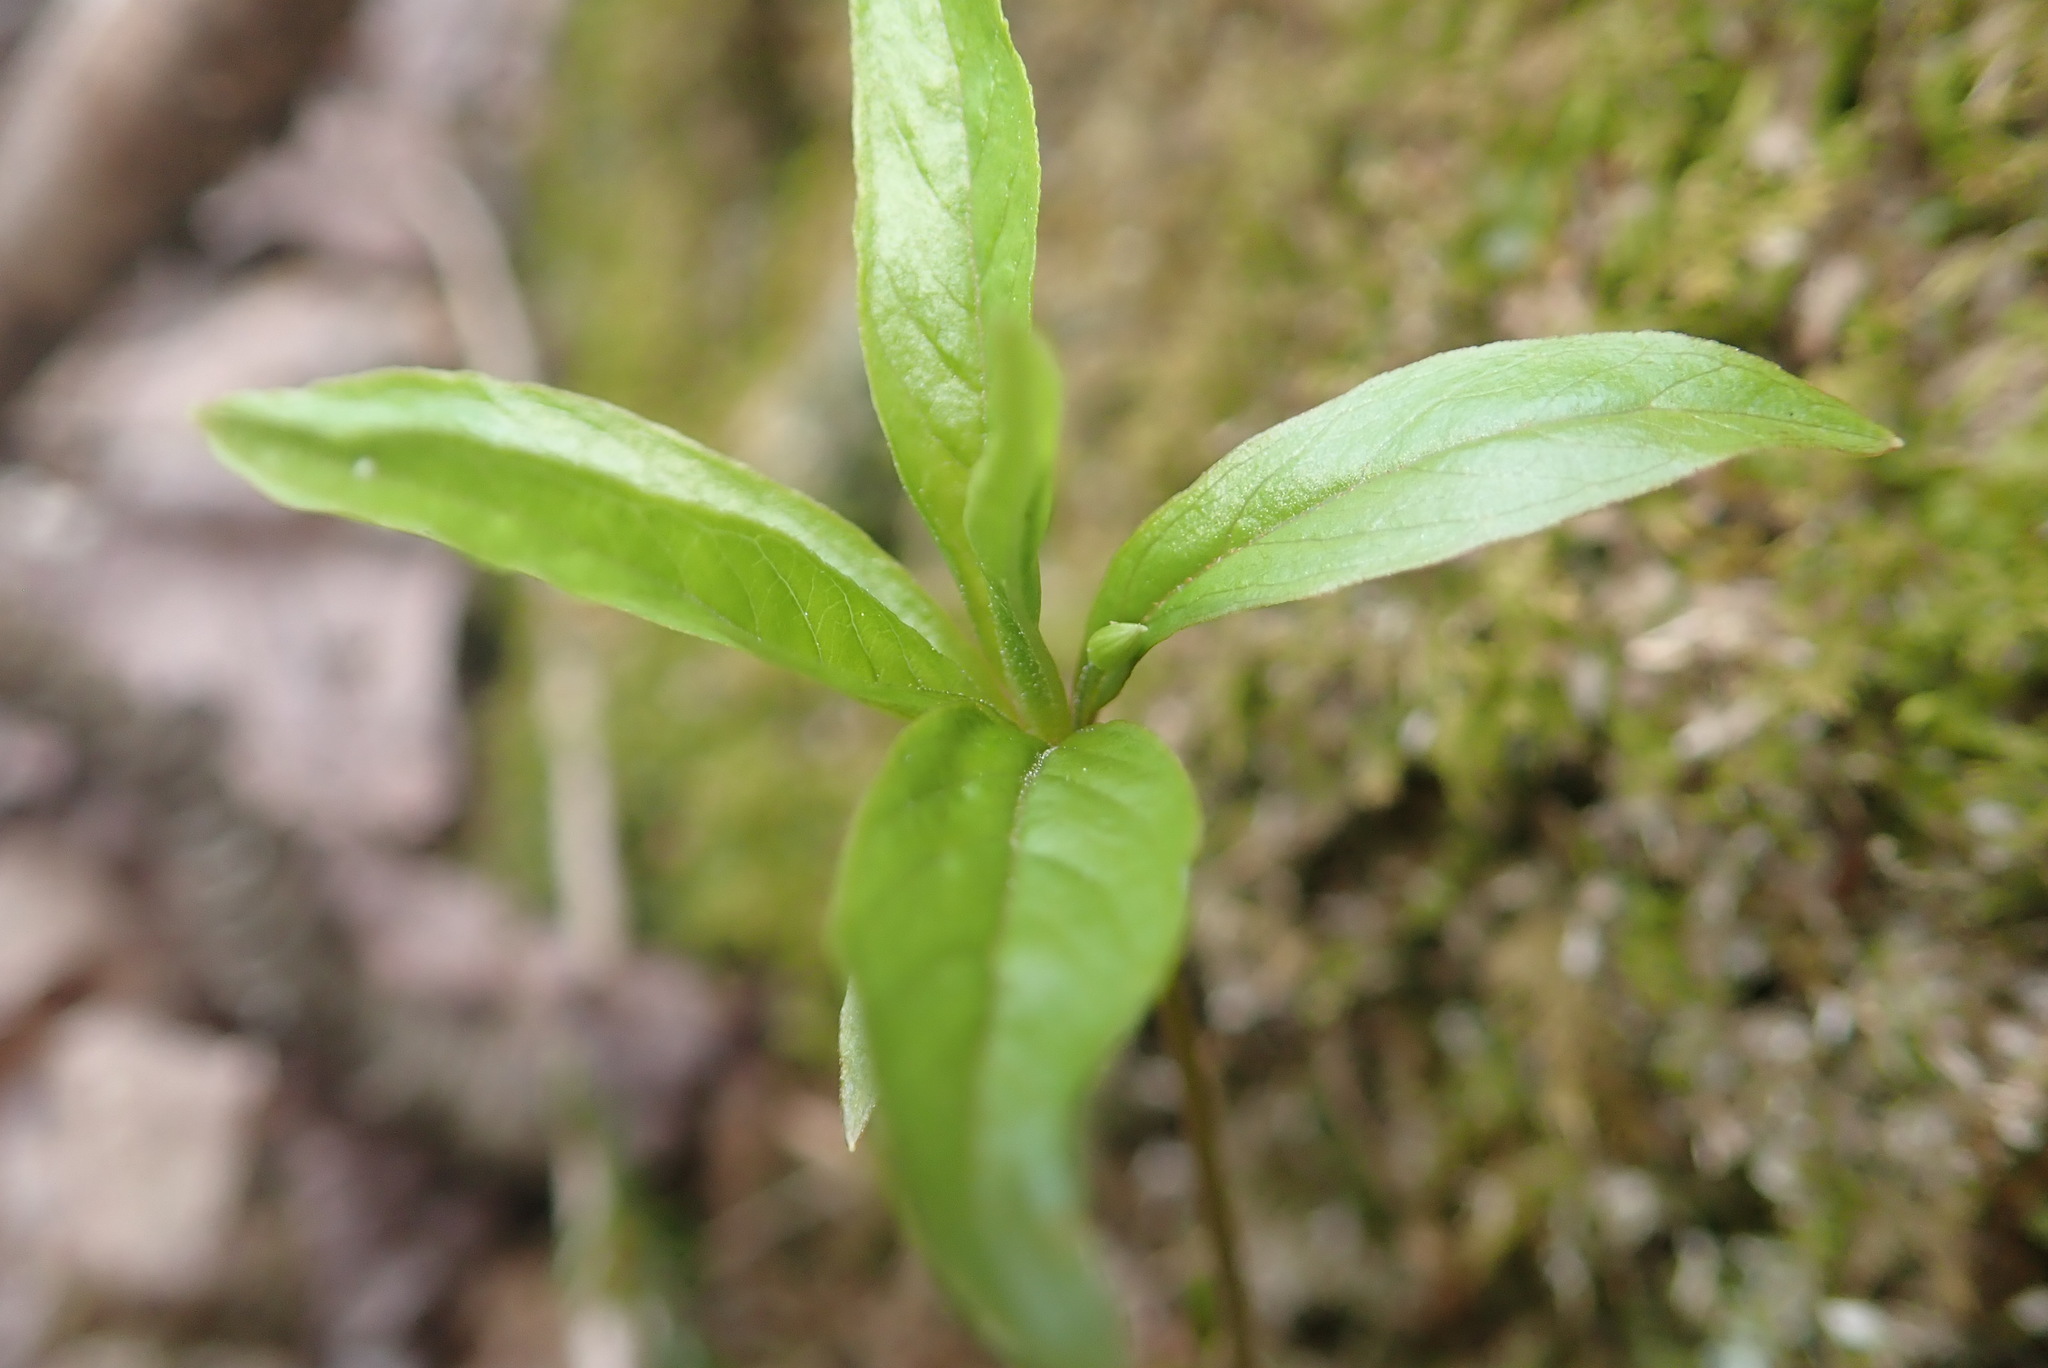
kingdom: Plantae
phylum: Tracheophyta
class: Magnoliopsida
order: Ericales
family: Primulaceae
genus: Lysimachia
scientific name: Lysimachia borealis
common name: American starflower
